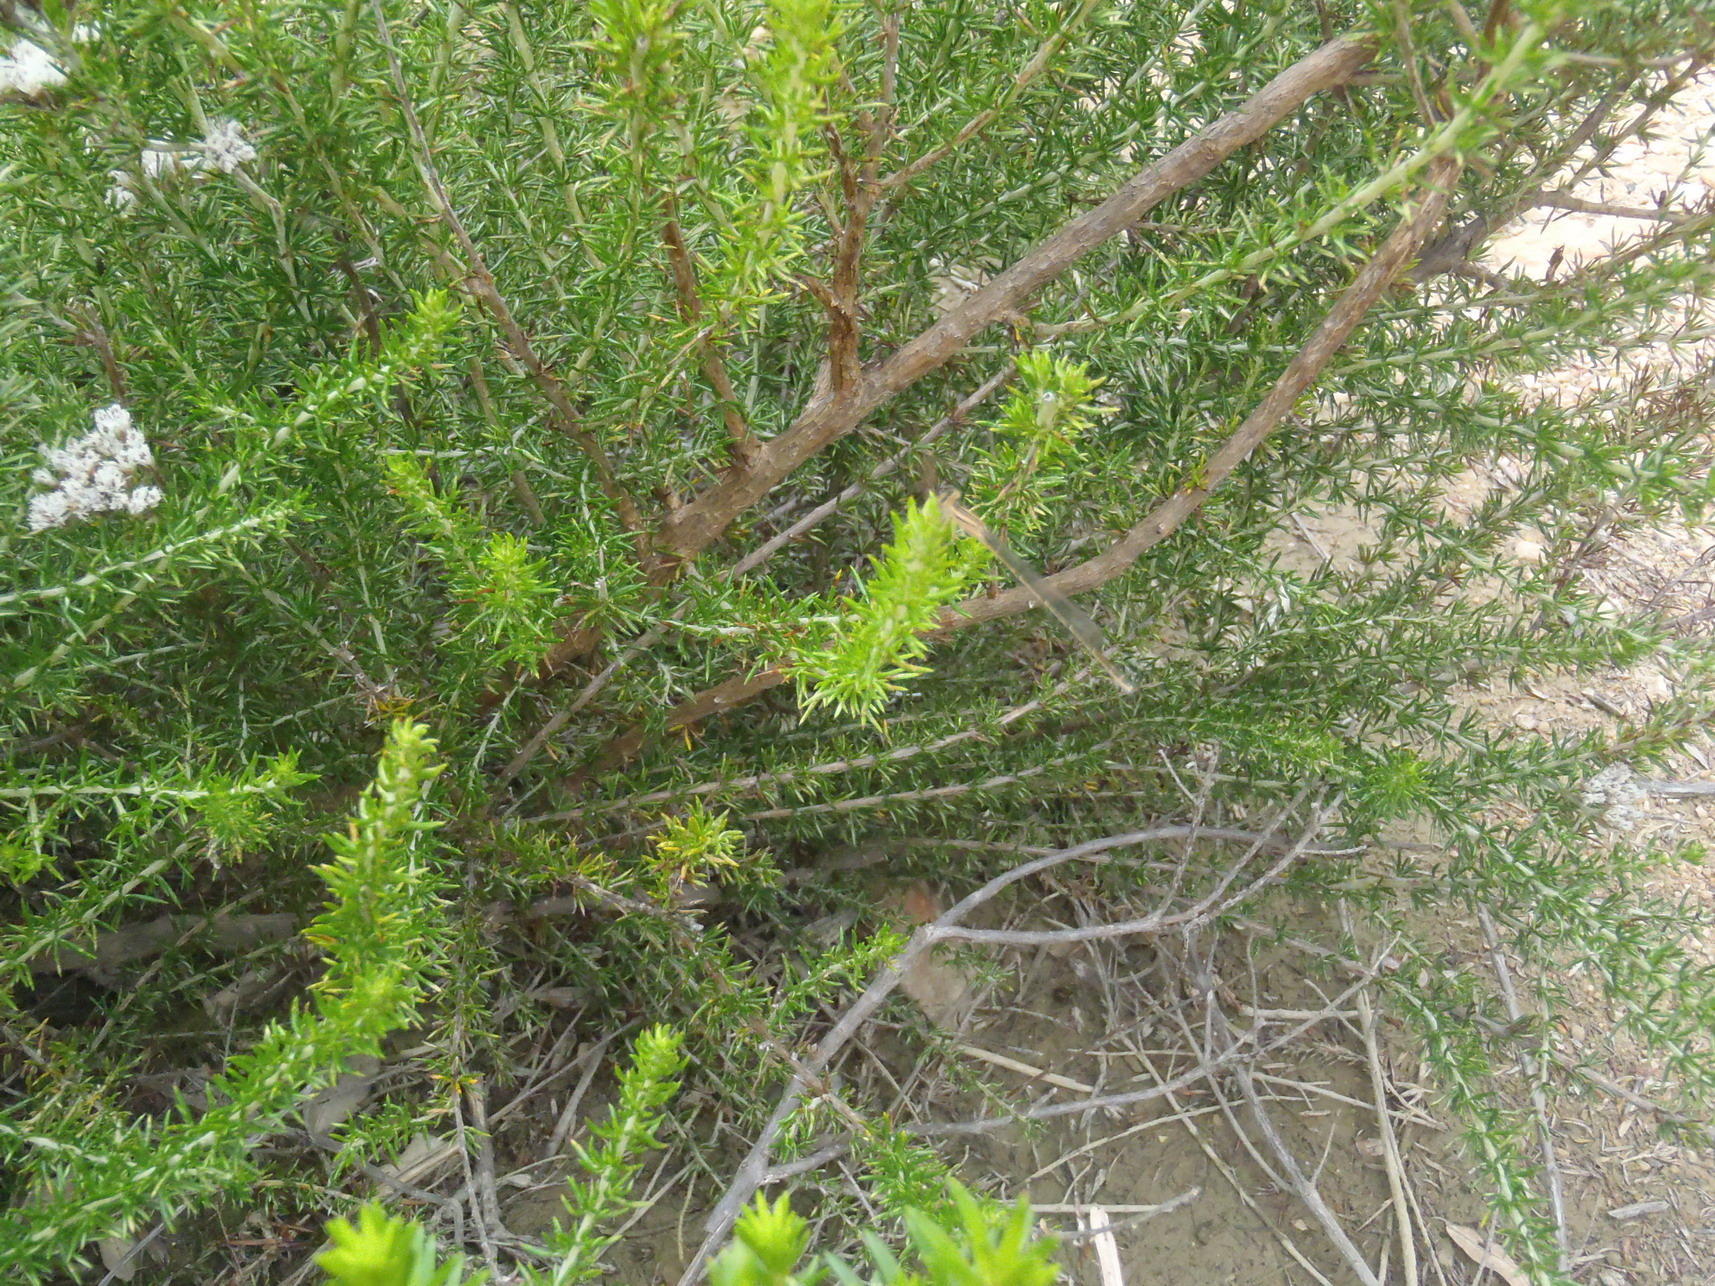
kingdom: Plantae
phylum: Tracheophyta
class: Magnoliopsida
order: Asterales
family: Asteraceae
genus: Metalasia
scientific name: Metalasia densa
